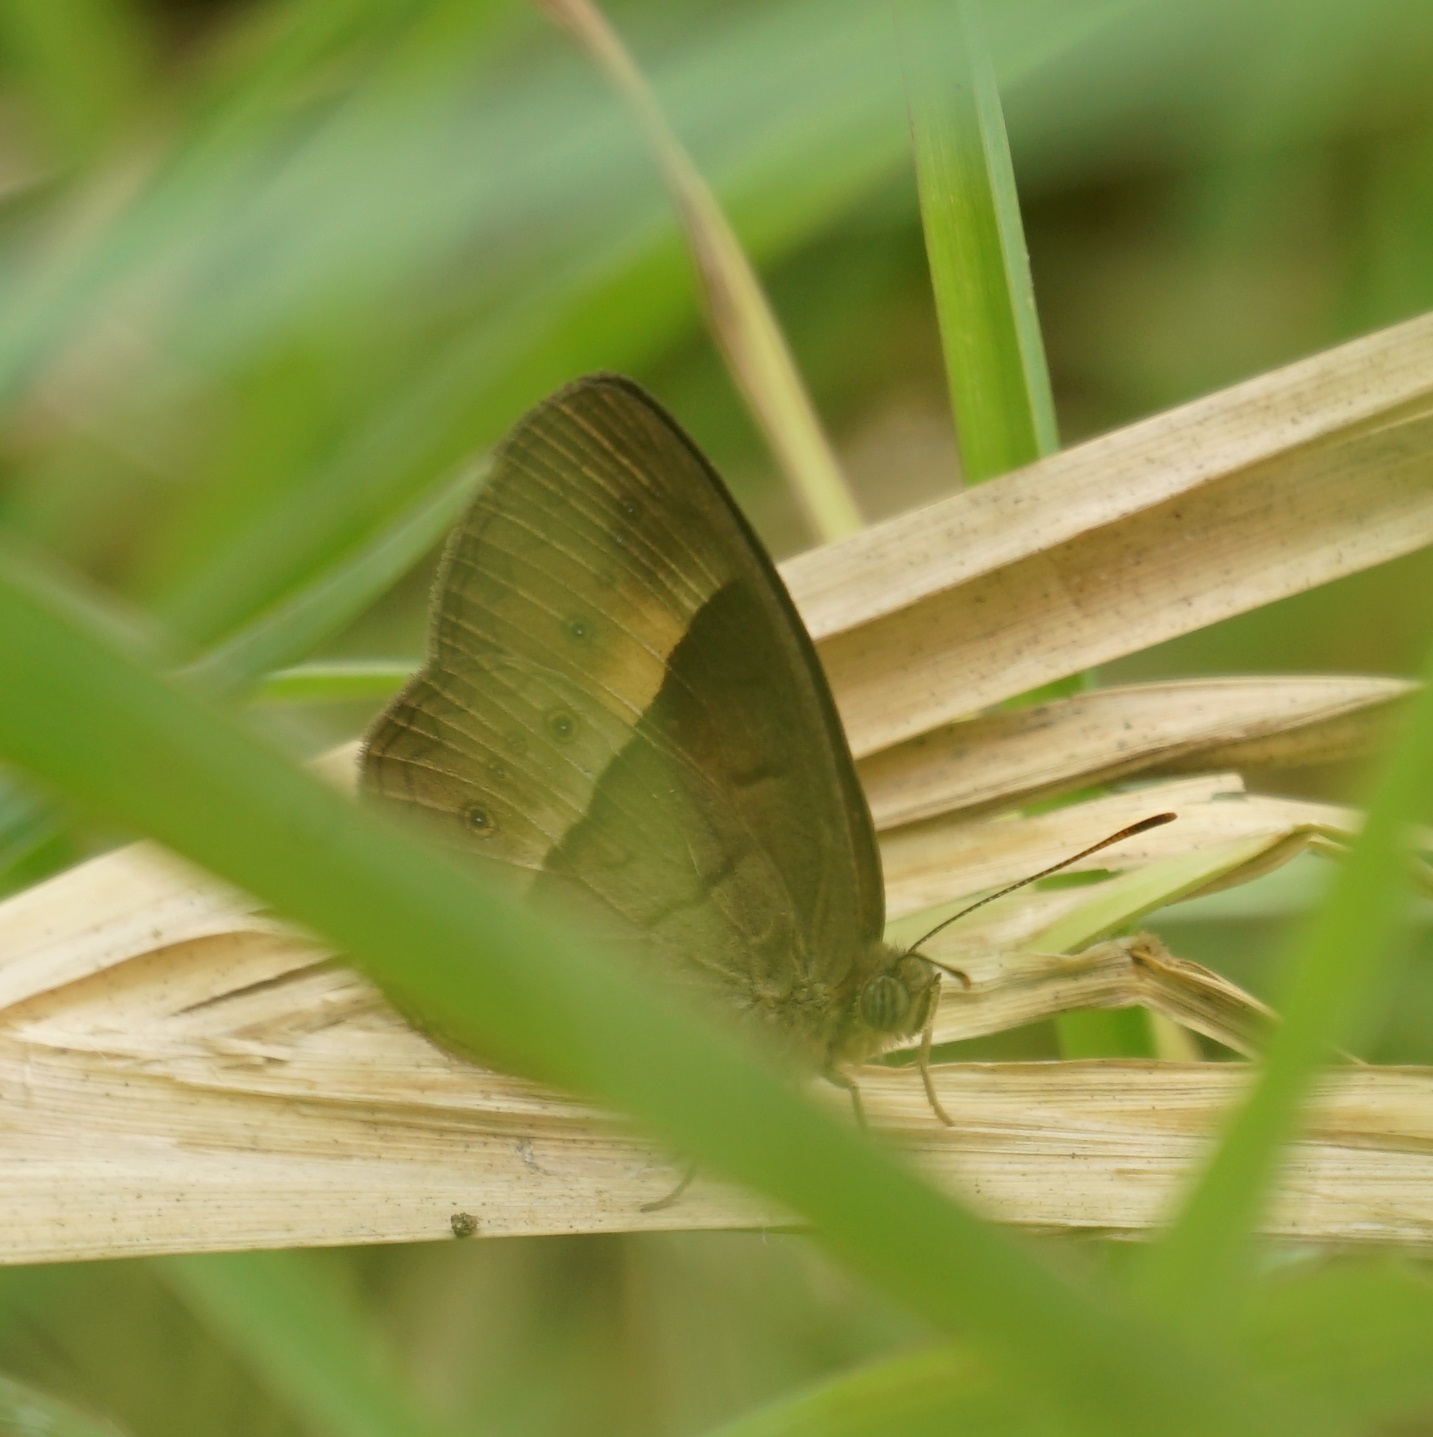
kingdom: Animalia
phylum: Arthropoda
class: Insecta
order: Lepidoptera
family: Nymphalidae
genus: Mycalesis
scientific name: Mycalesis terminus
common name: Orange bushbrown
